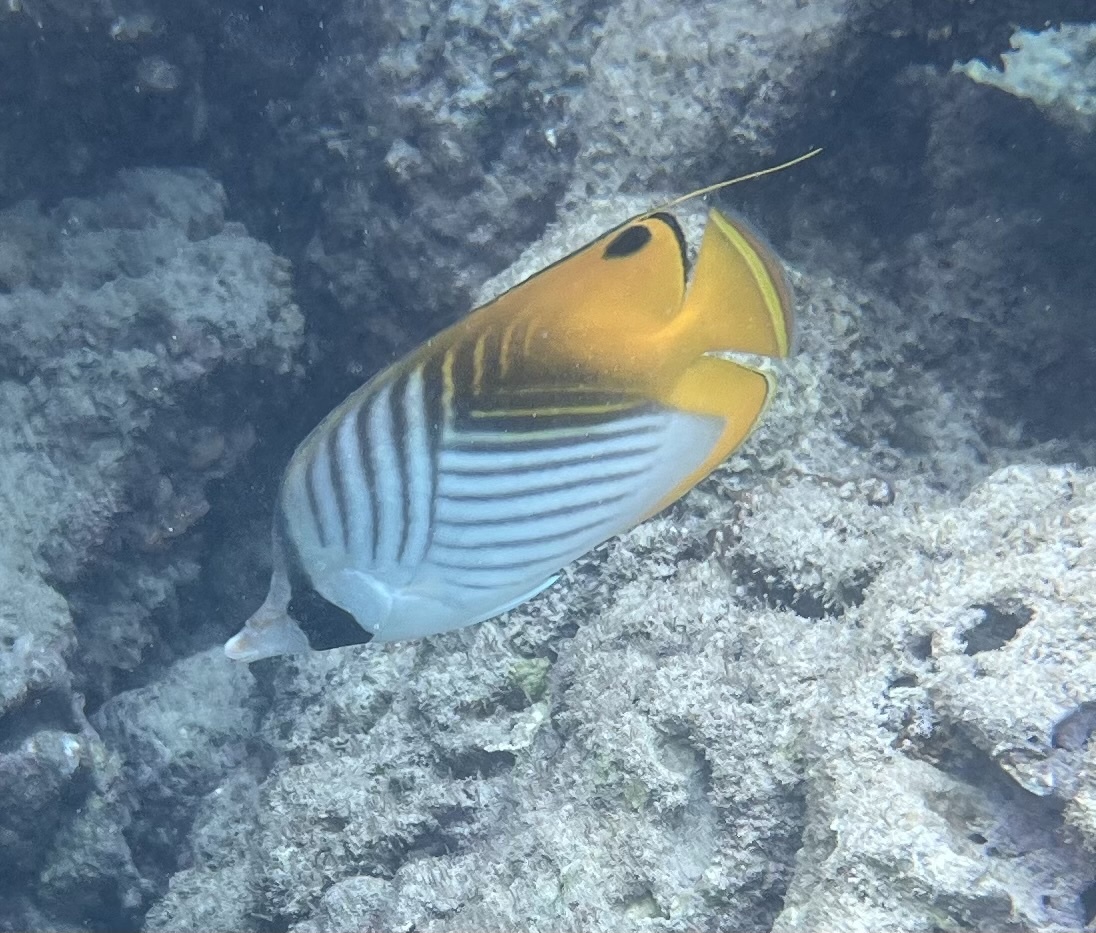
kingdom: Animalia
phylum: Chordata
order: Perciformes
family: Chaetodontidae
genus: Chaetodon
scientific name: Chaetodon auriga
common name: Threadfin butterflyfish
